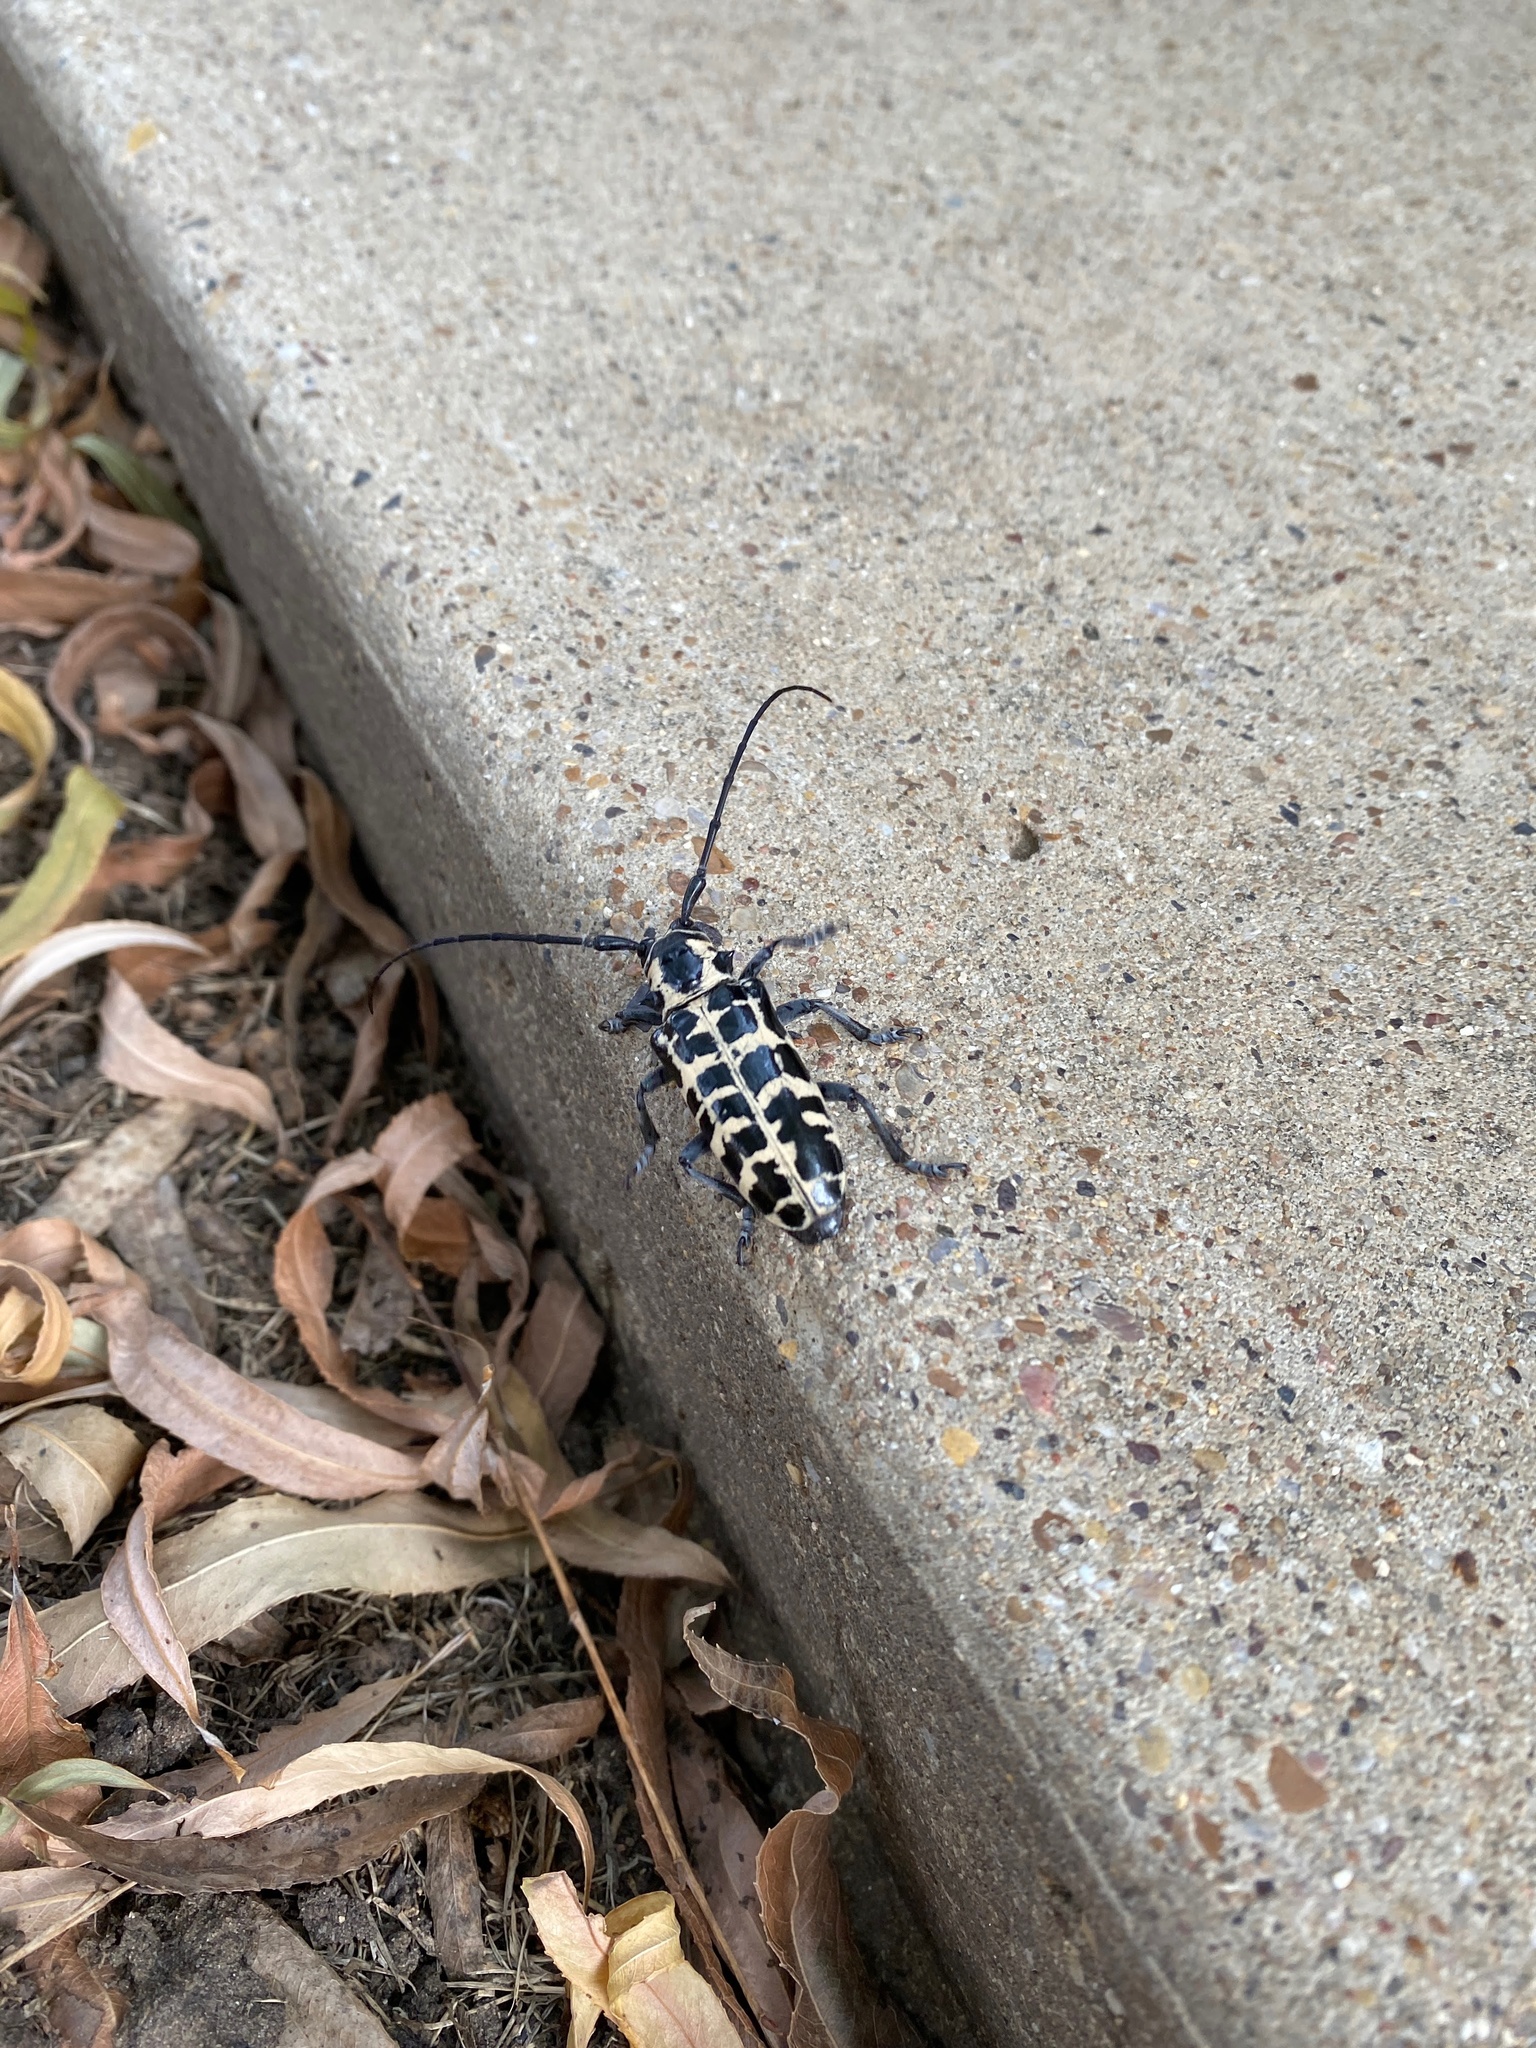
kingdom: Animalia
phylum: Arthropoda
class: Insecta
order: Coleoptera
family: Cerambycidae
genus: Plectrodera
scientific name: Plectrodera scalator
